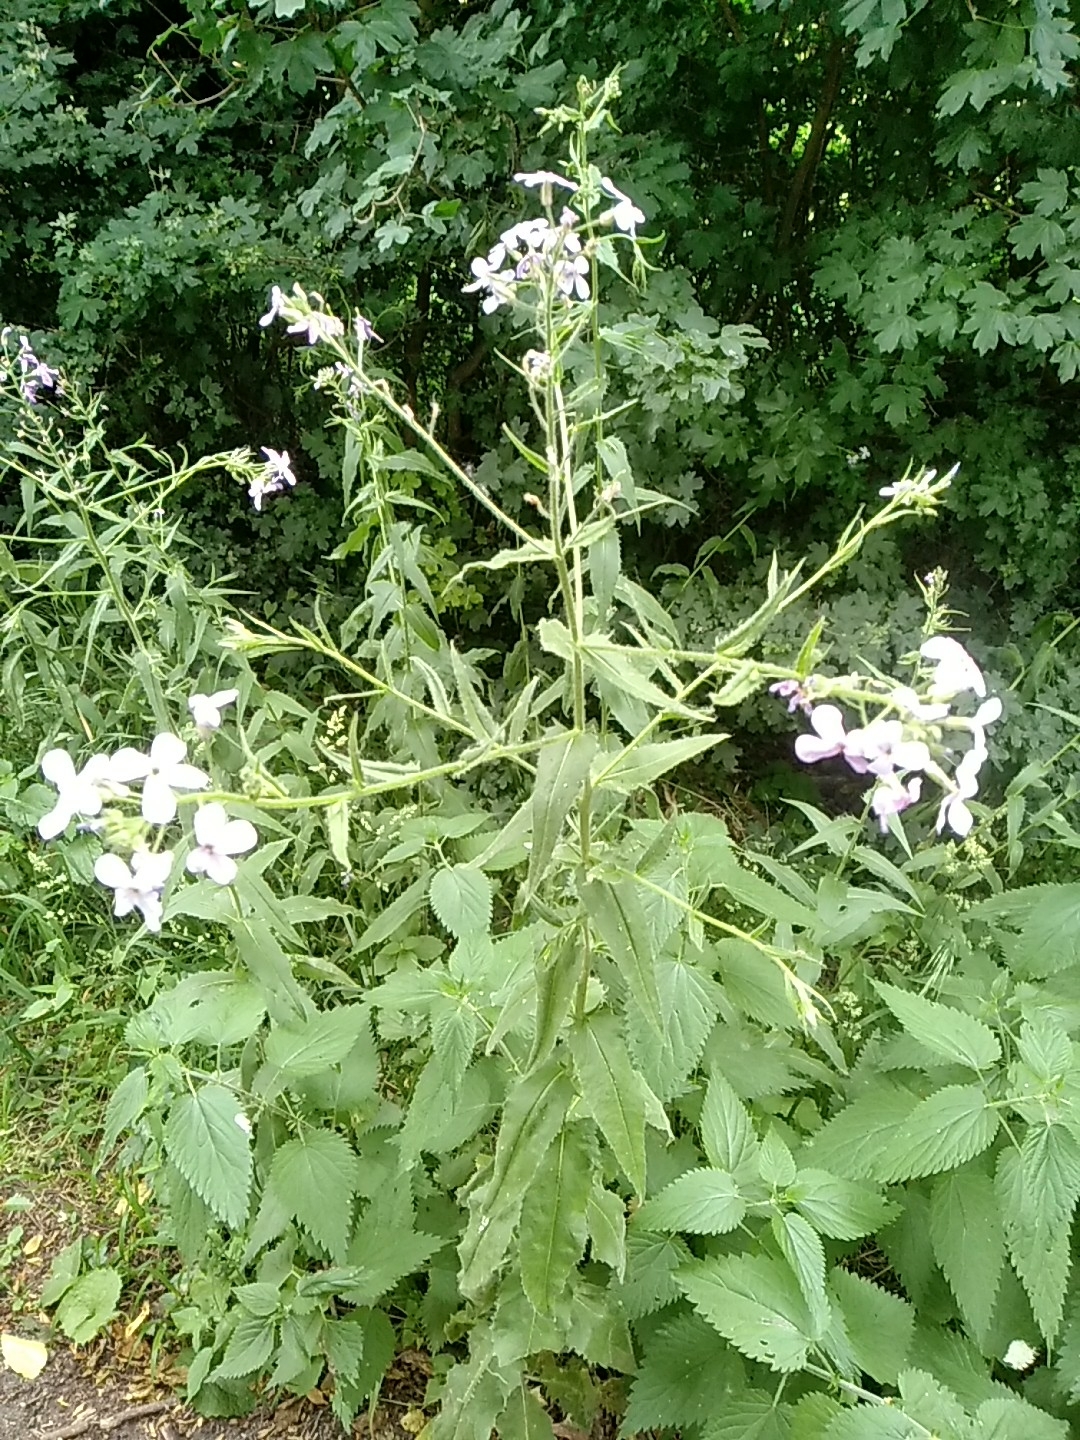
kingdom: Plantae
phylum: Tracheophyta
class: Magnoliopsida
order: Brassicales
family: Brassicaceae
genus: Hesperis
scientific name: Hesperis matronalis
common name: Dame's-violet
